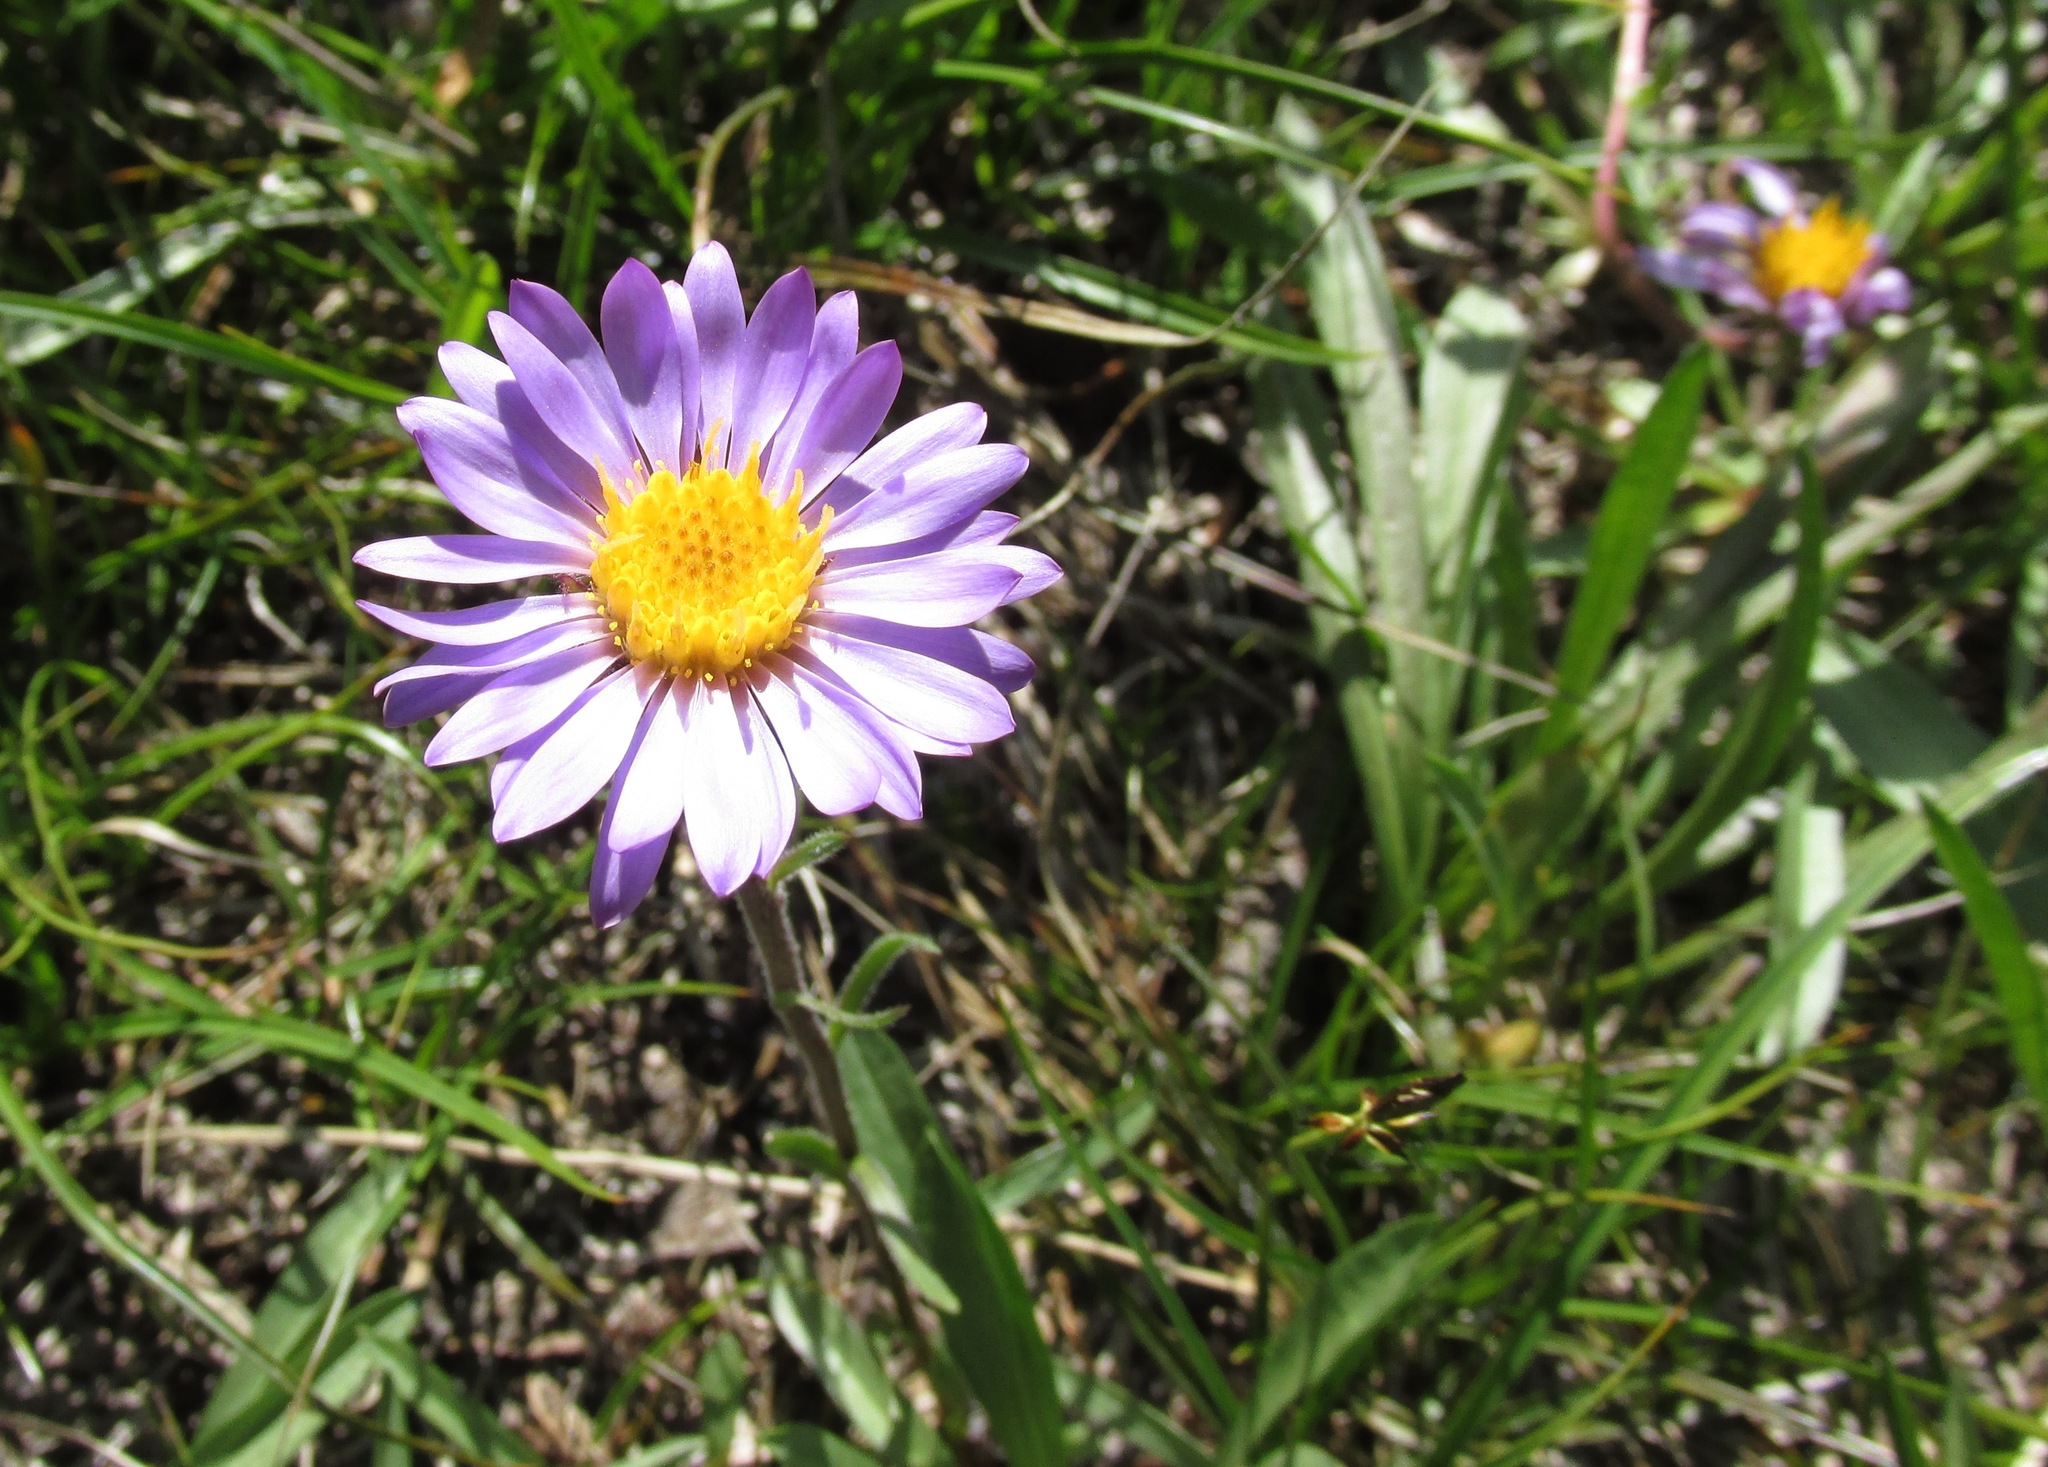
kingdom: Plantae
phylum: Tracheophyta
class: Magnoliopsida
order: Asterales
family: Asteraceae
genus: Oreostemma
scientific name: Oreostemma alpigenum
